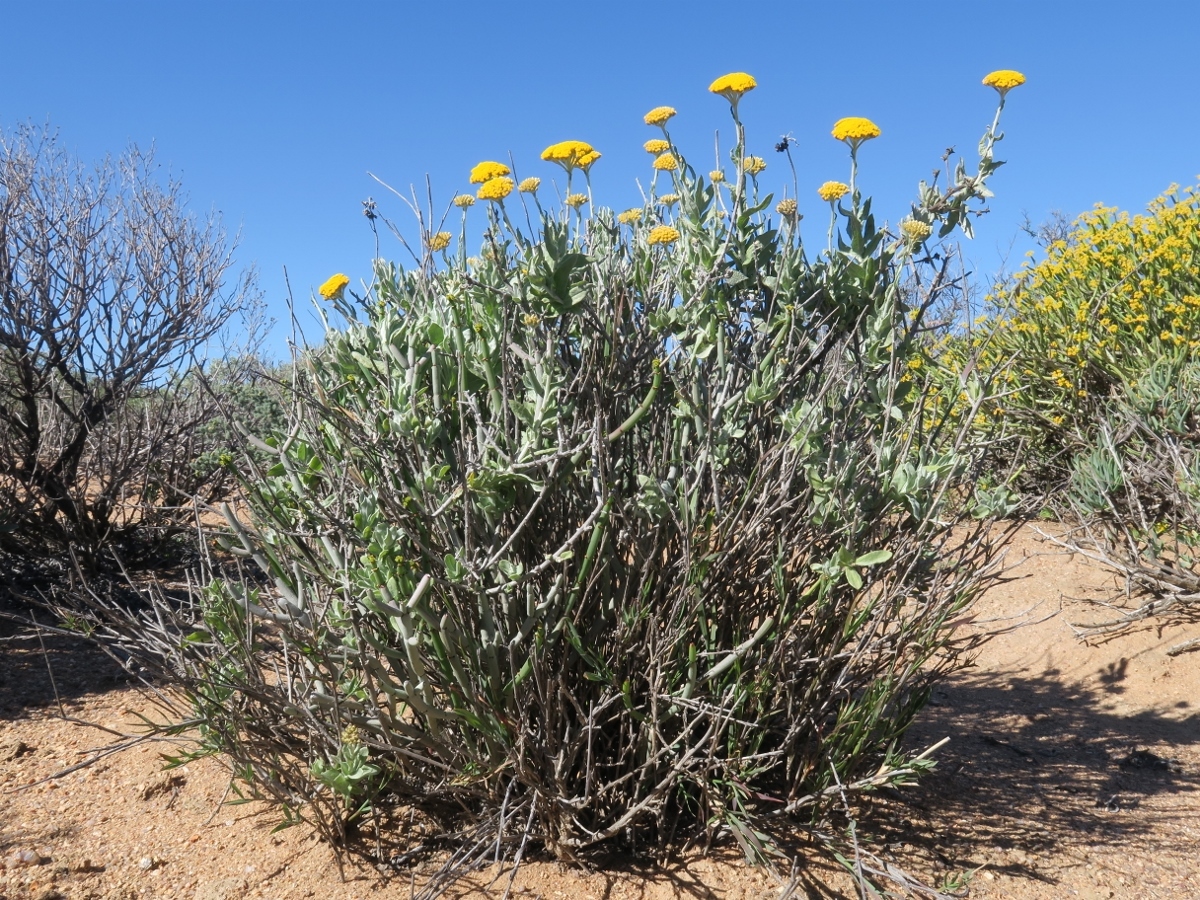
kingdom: Plantae
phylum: Tracheophyta
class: Magnoliopsida
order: Asterales
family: Asteraceae
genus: Helichrysum
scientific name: Helichrysum hebelepis
